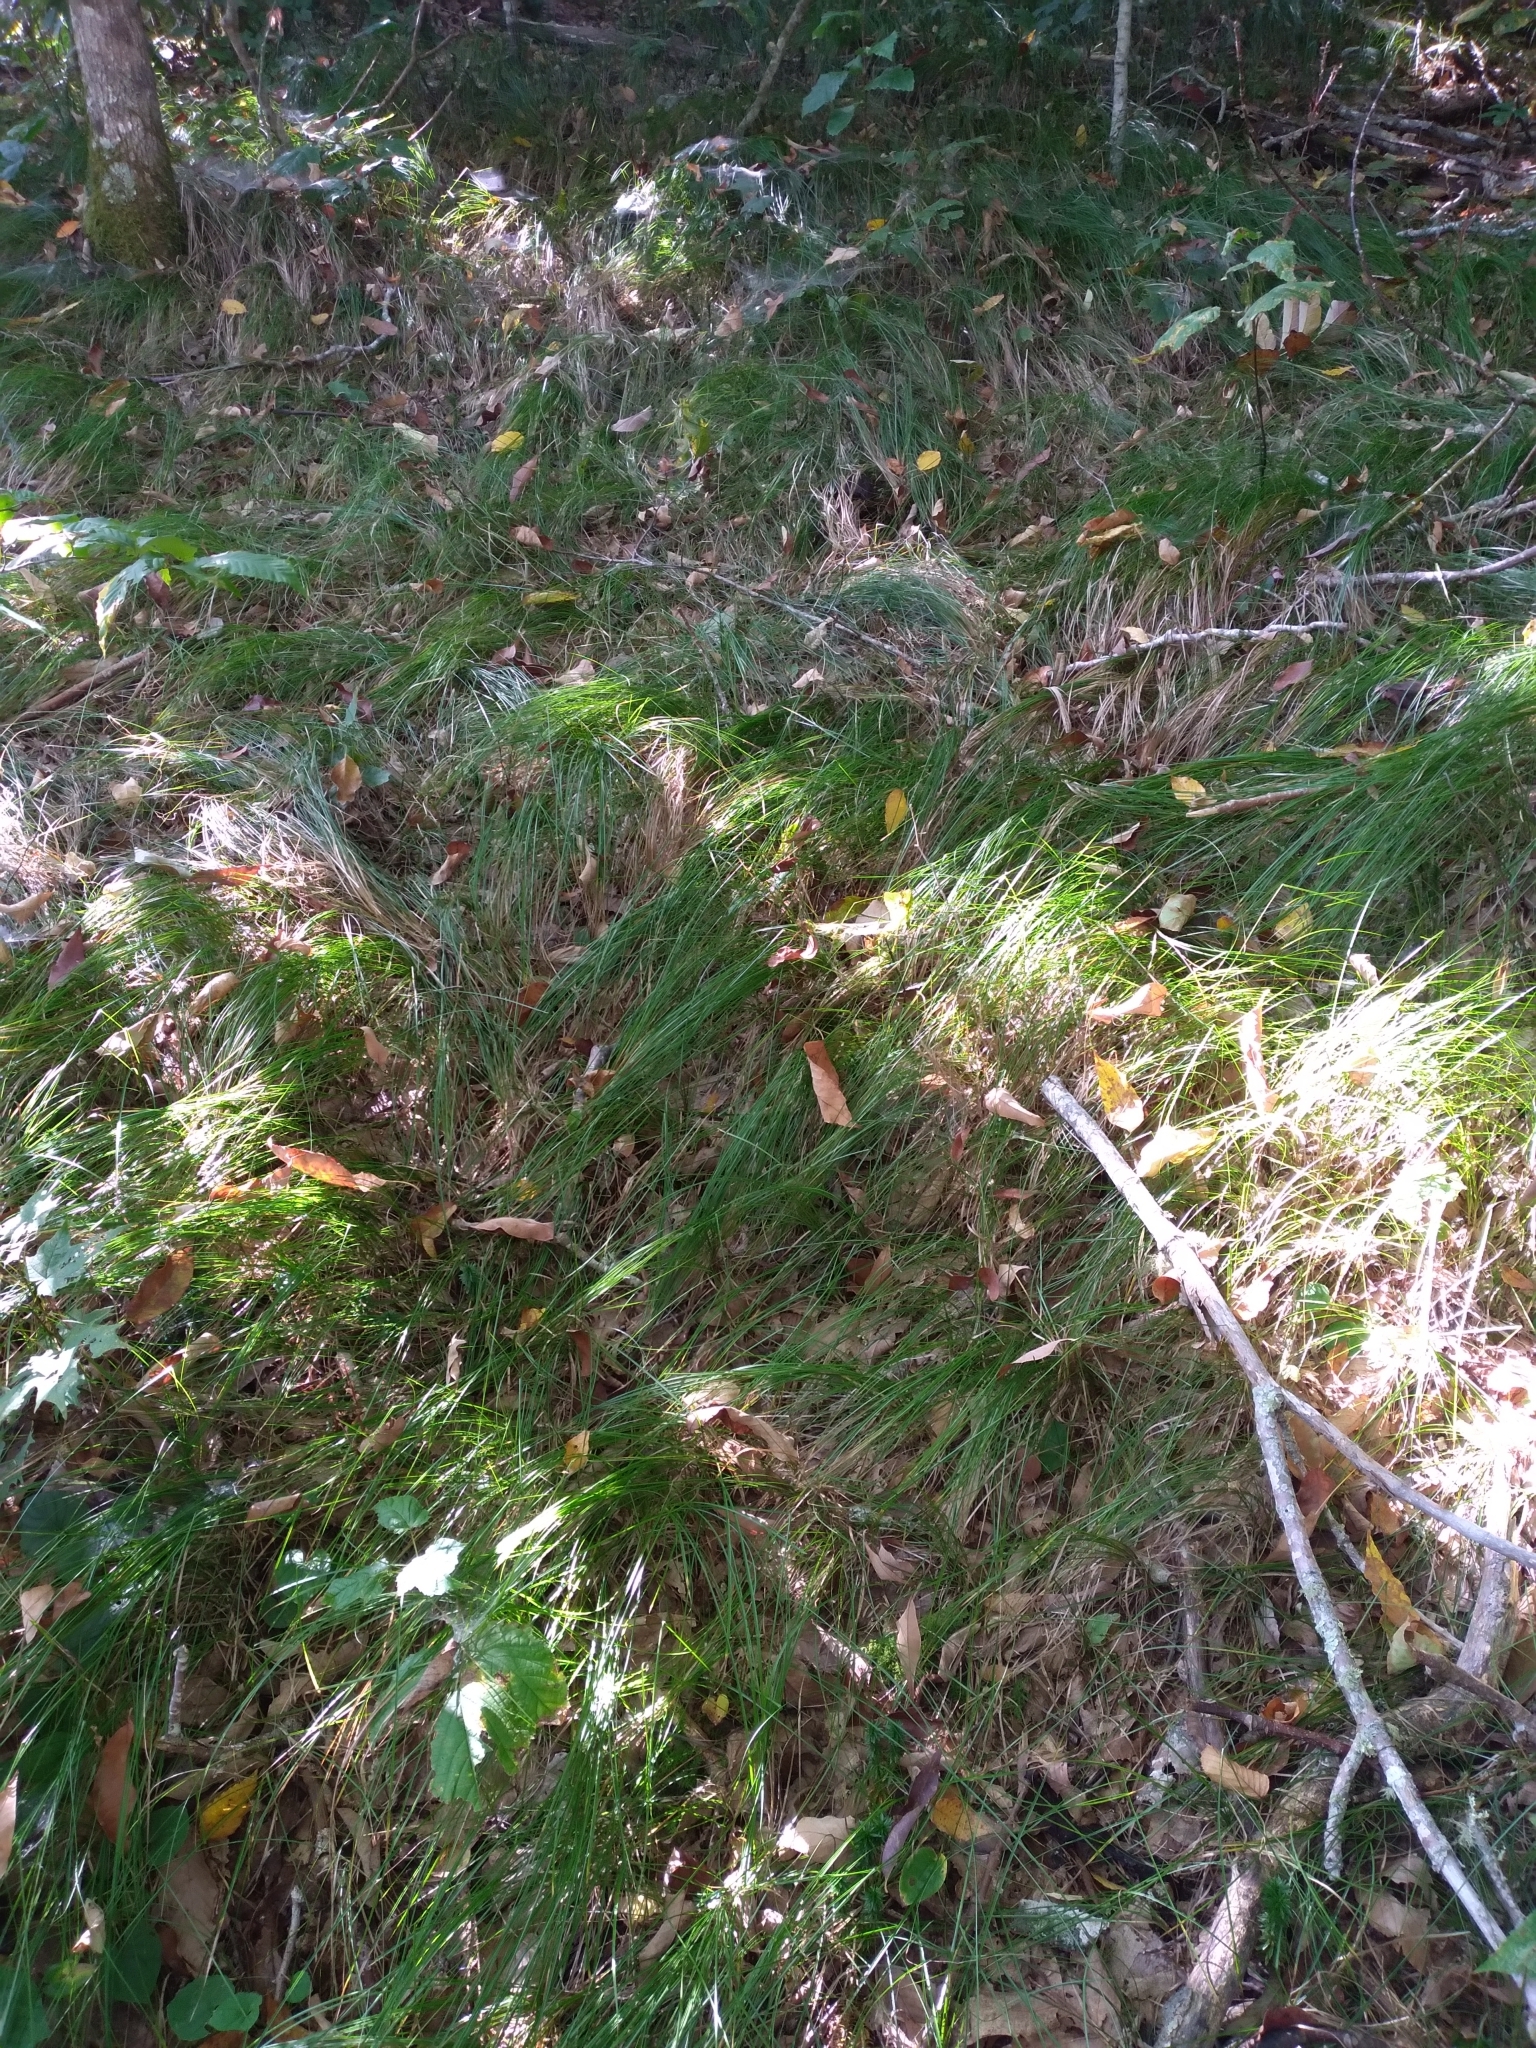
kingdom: Plantae
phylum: Tracheophyta
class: Liliopsida
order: Poales
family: Cyperaceae
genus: Carex
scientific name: Carex austrolucorum
